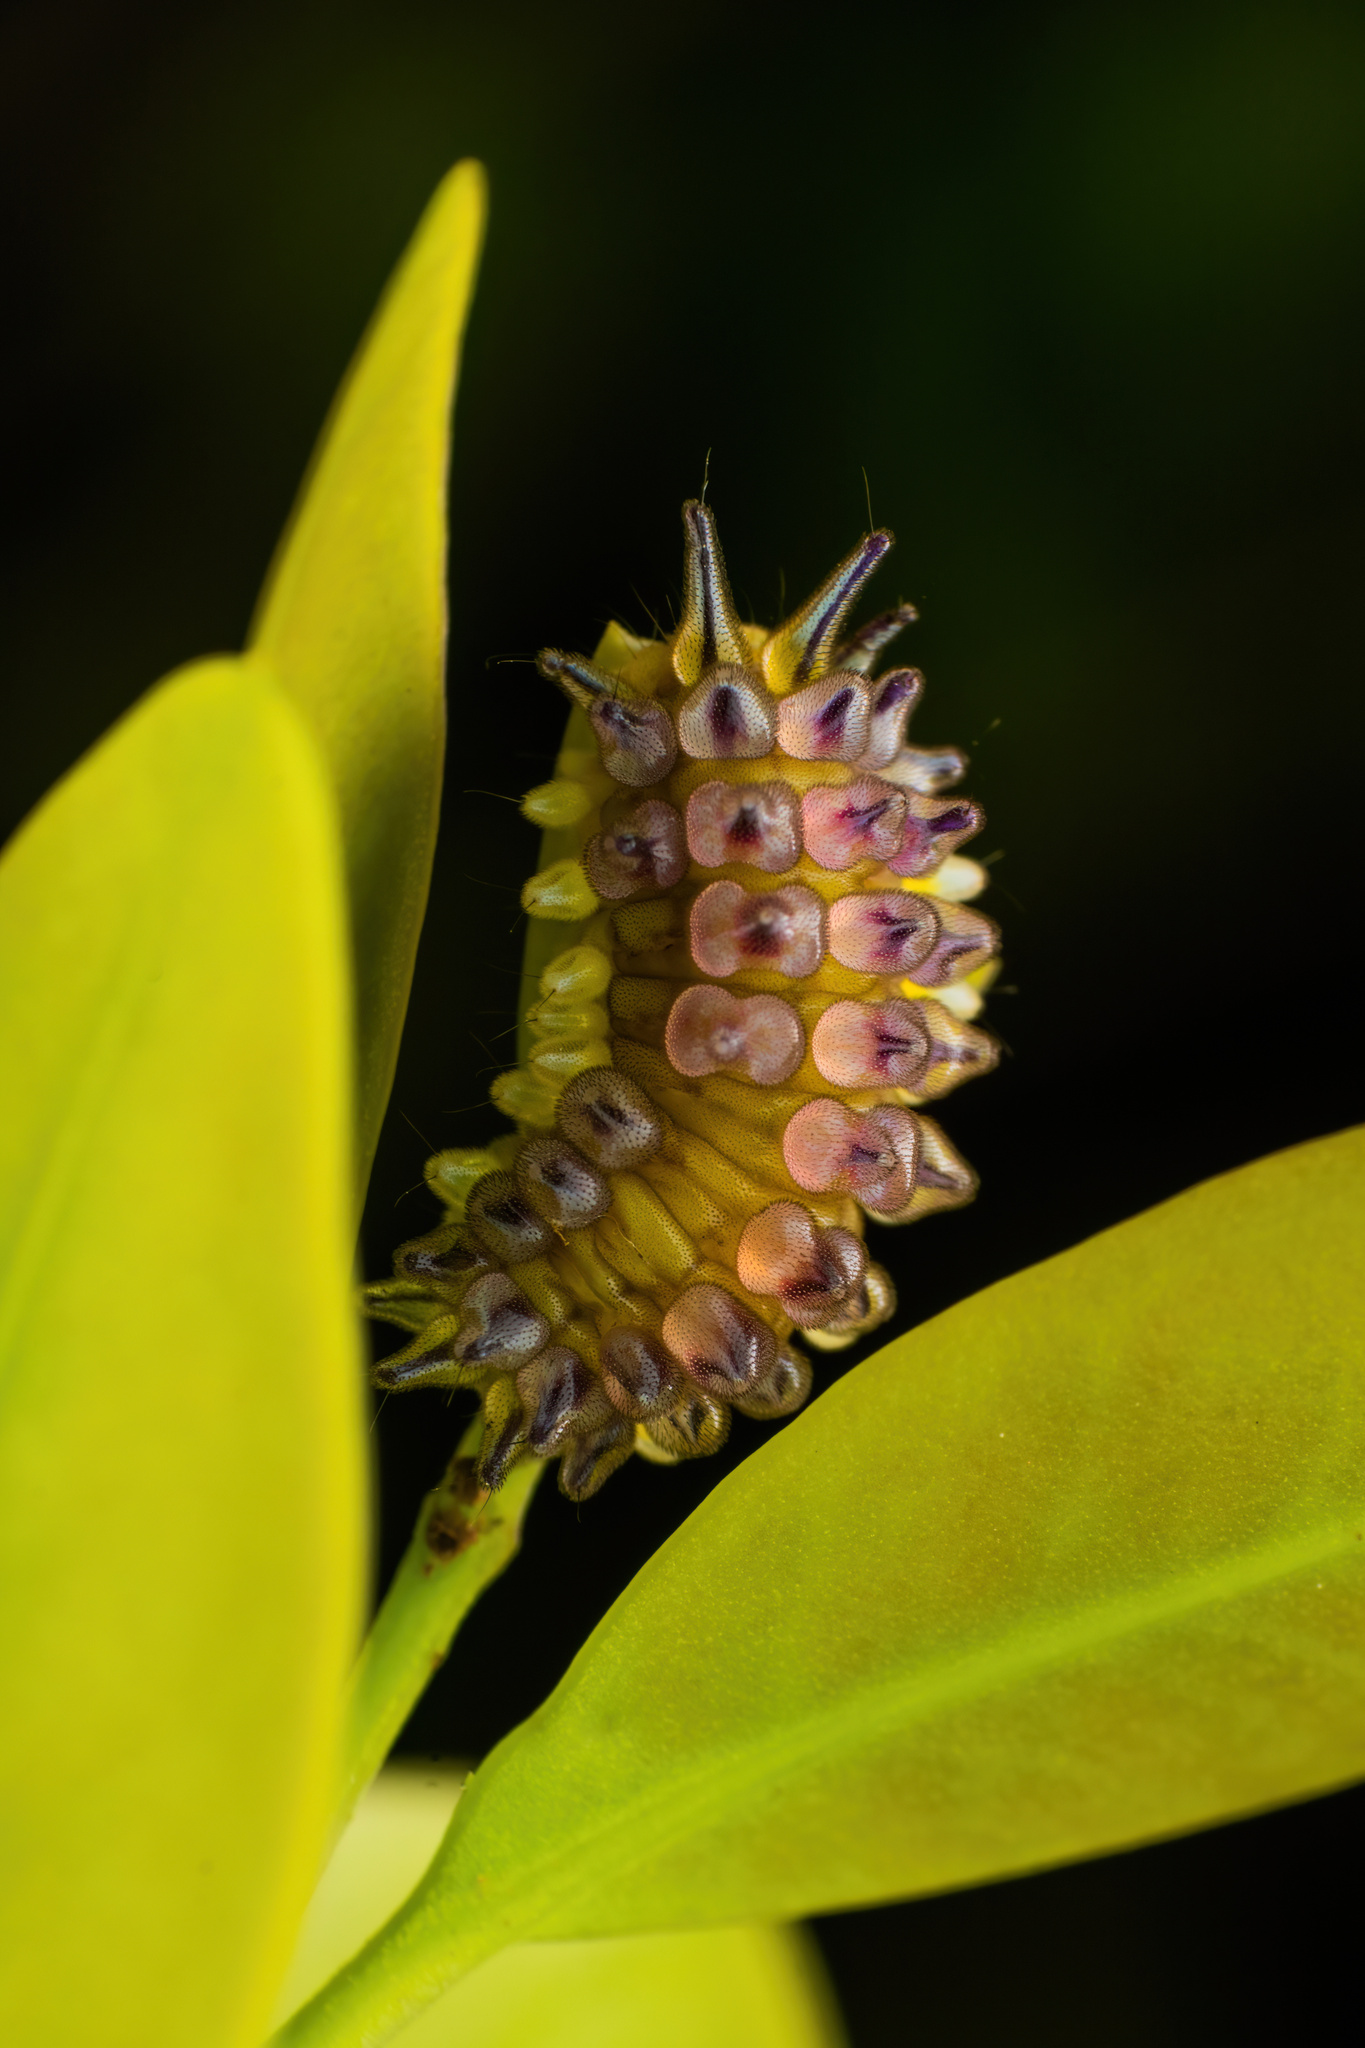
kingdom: Animalia
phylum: Arthropoda
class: Insecta
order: Lepidoptera
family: Zygaenidae
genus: Callizygaena
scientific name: Callizygaena auratus
